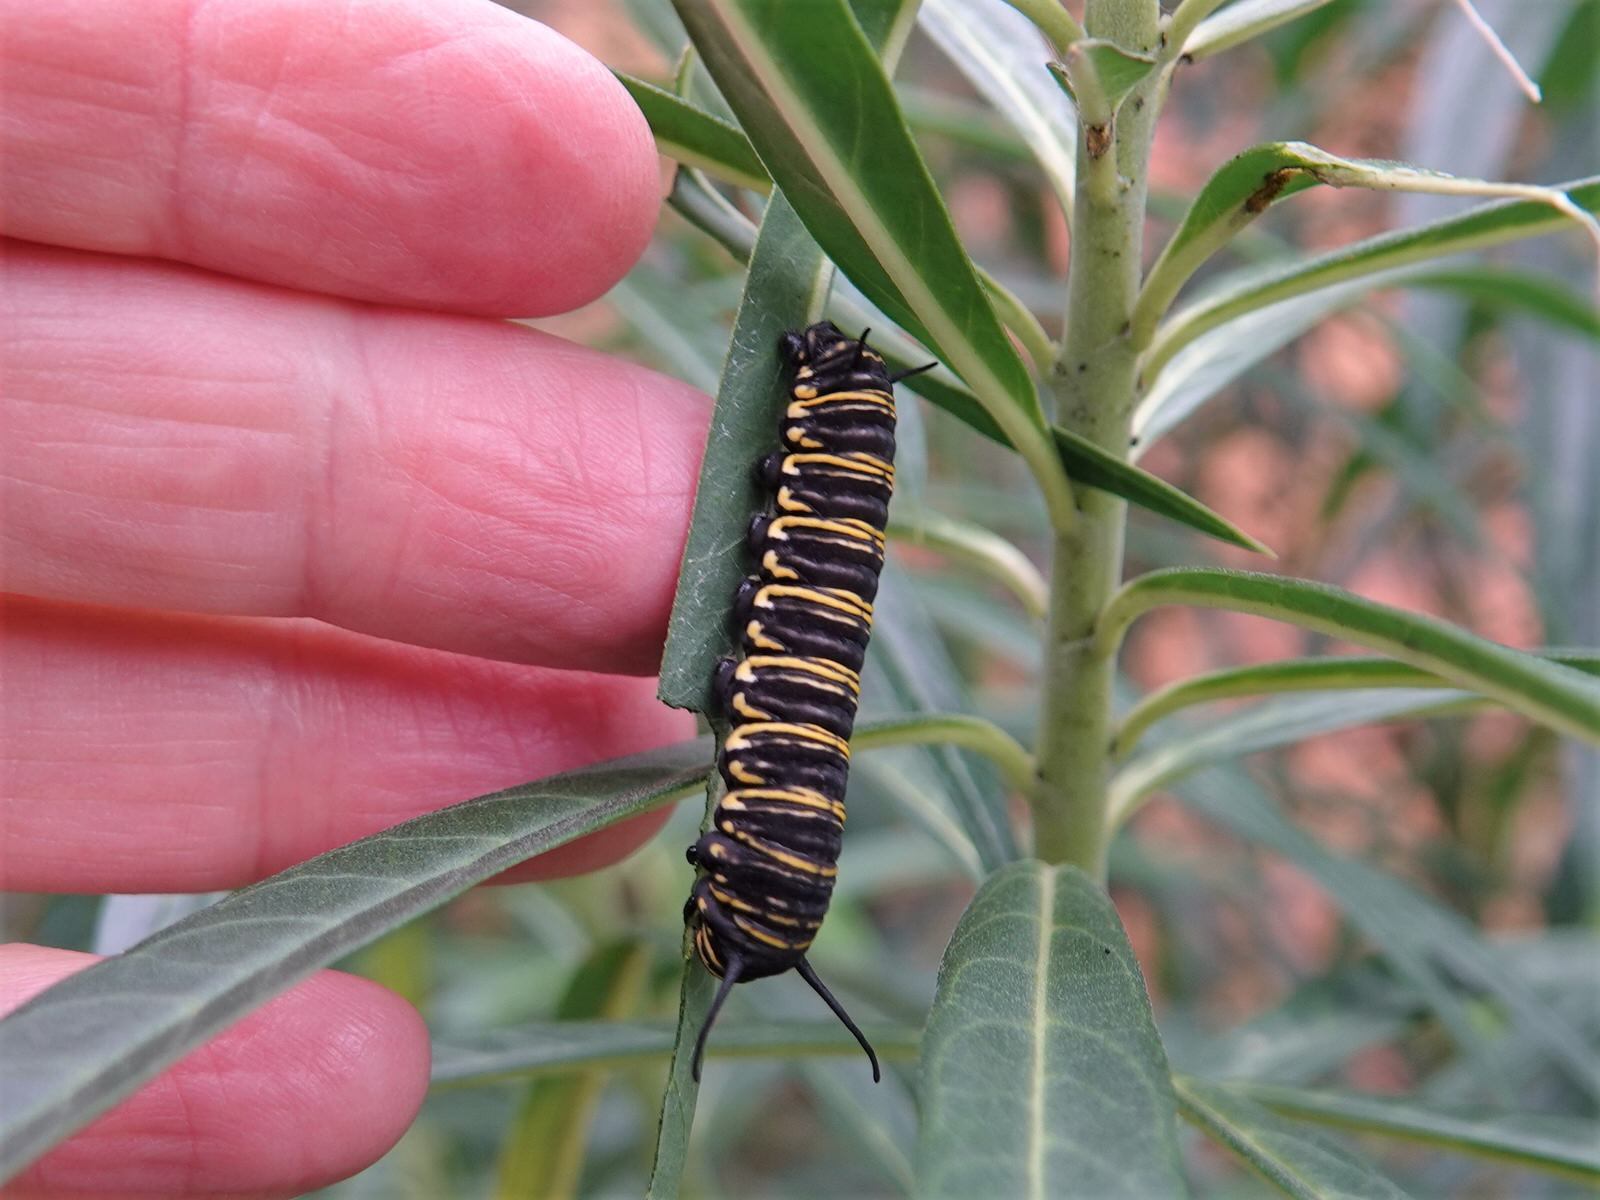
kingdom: Animalia
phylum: Arthropoda
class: Insecta
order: Lepidoptera
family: Nymphalidae
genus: Danaus
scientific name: Danaus plexippus
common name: Monarch
